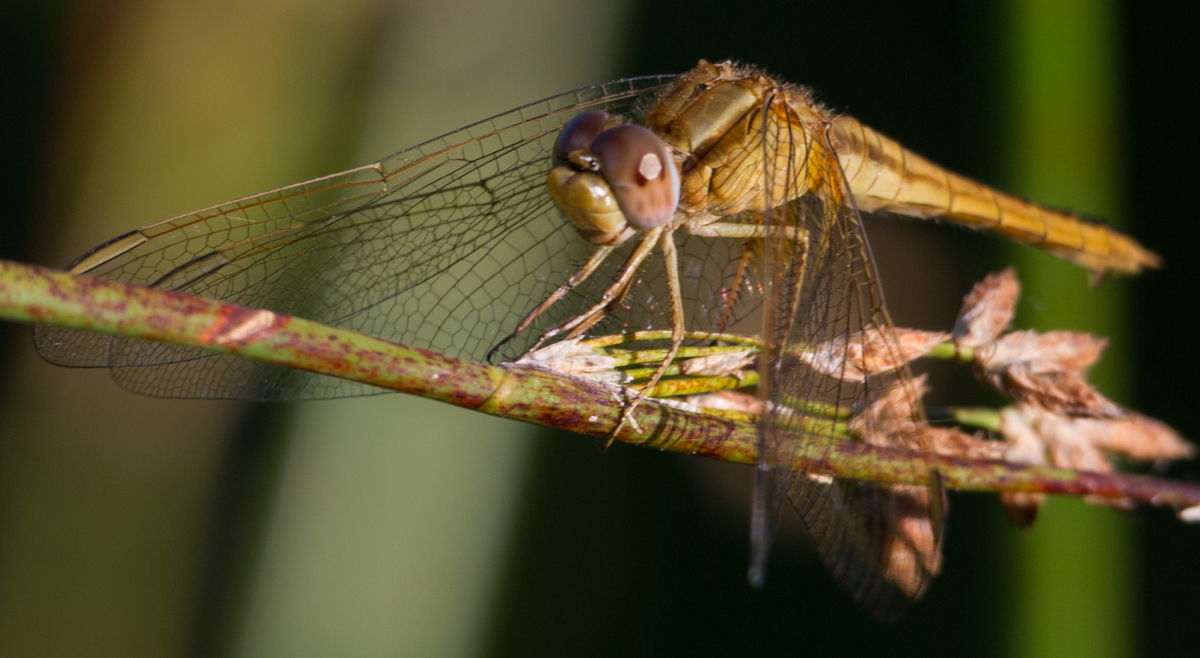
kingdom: Animalia
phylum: Arthropoda
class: Insecta
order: Odonata
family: Libellulidae
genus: Crocothemis
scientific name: Crocothemis erythraea
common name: Scarlet dragonfly
